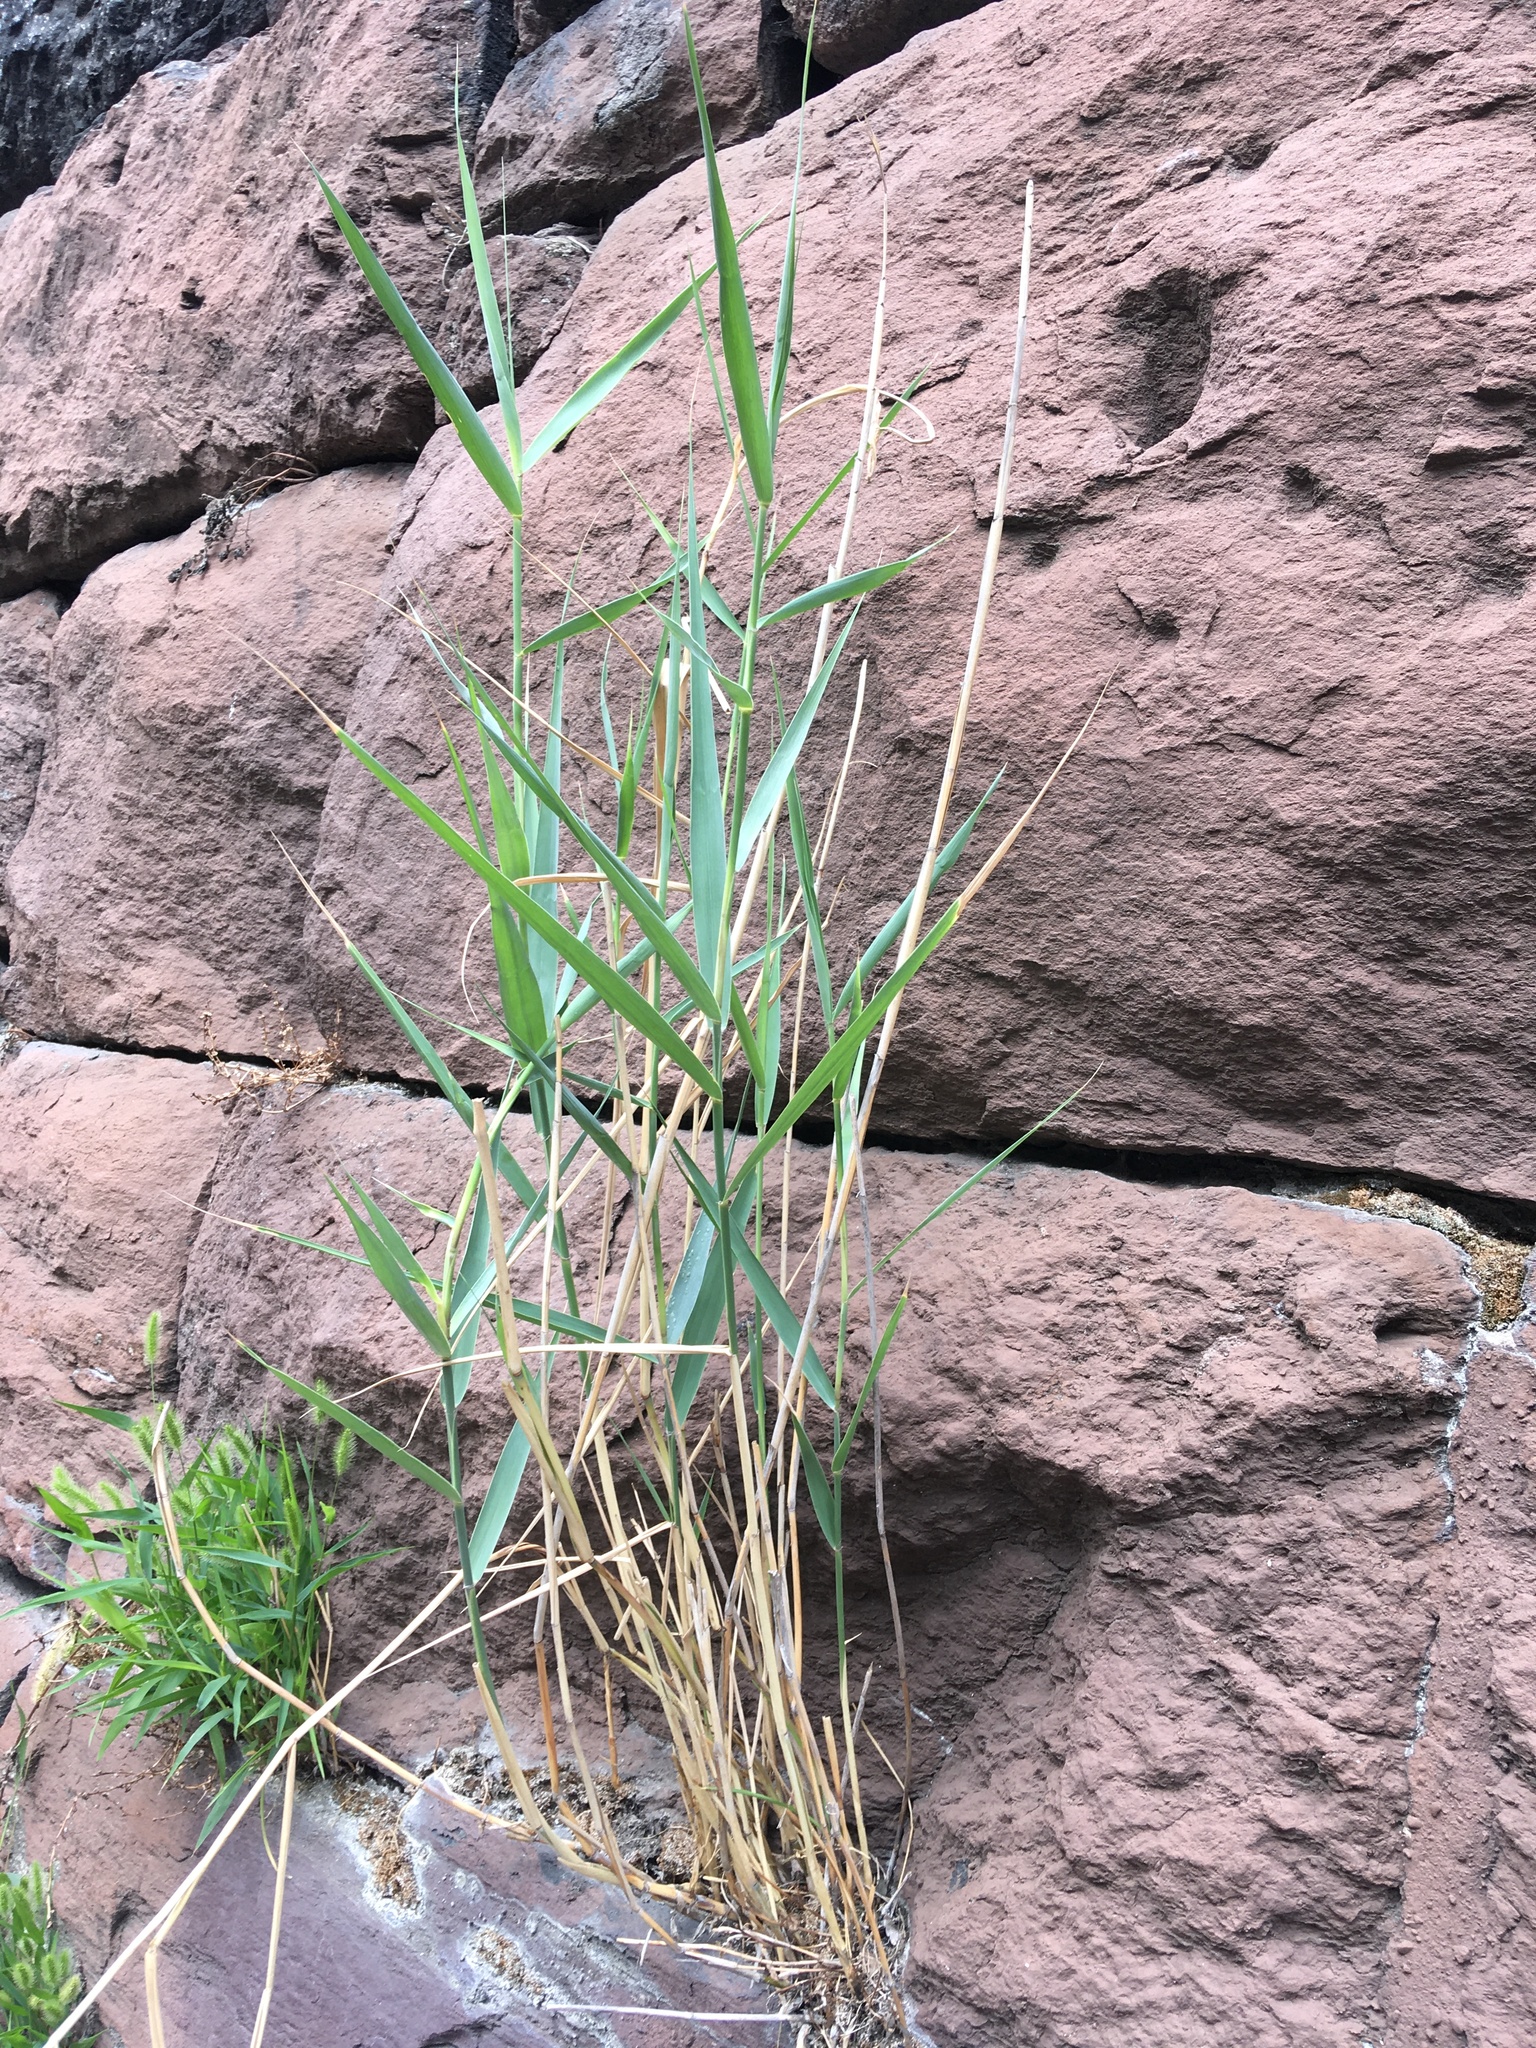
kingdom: Plantae
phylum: Tracheophyta
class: Liliopsida
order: Poales
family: Poaceae
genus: Phragmites
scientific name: Phragmites australis
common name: Common reed
